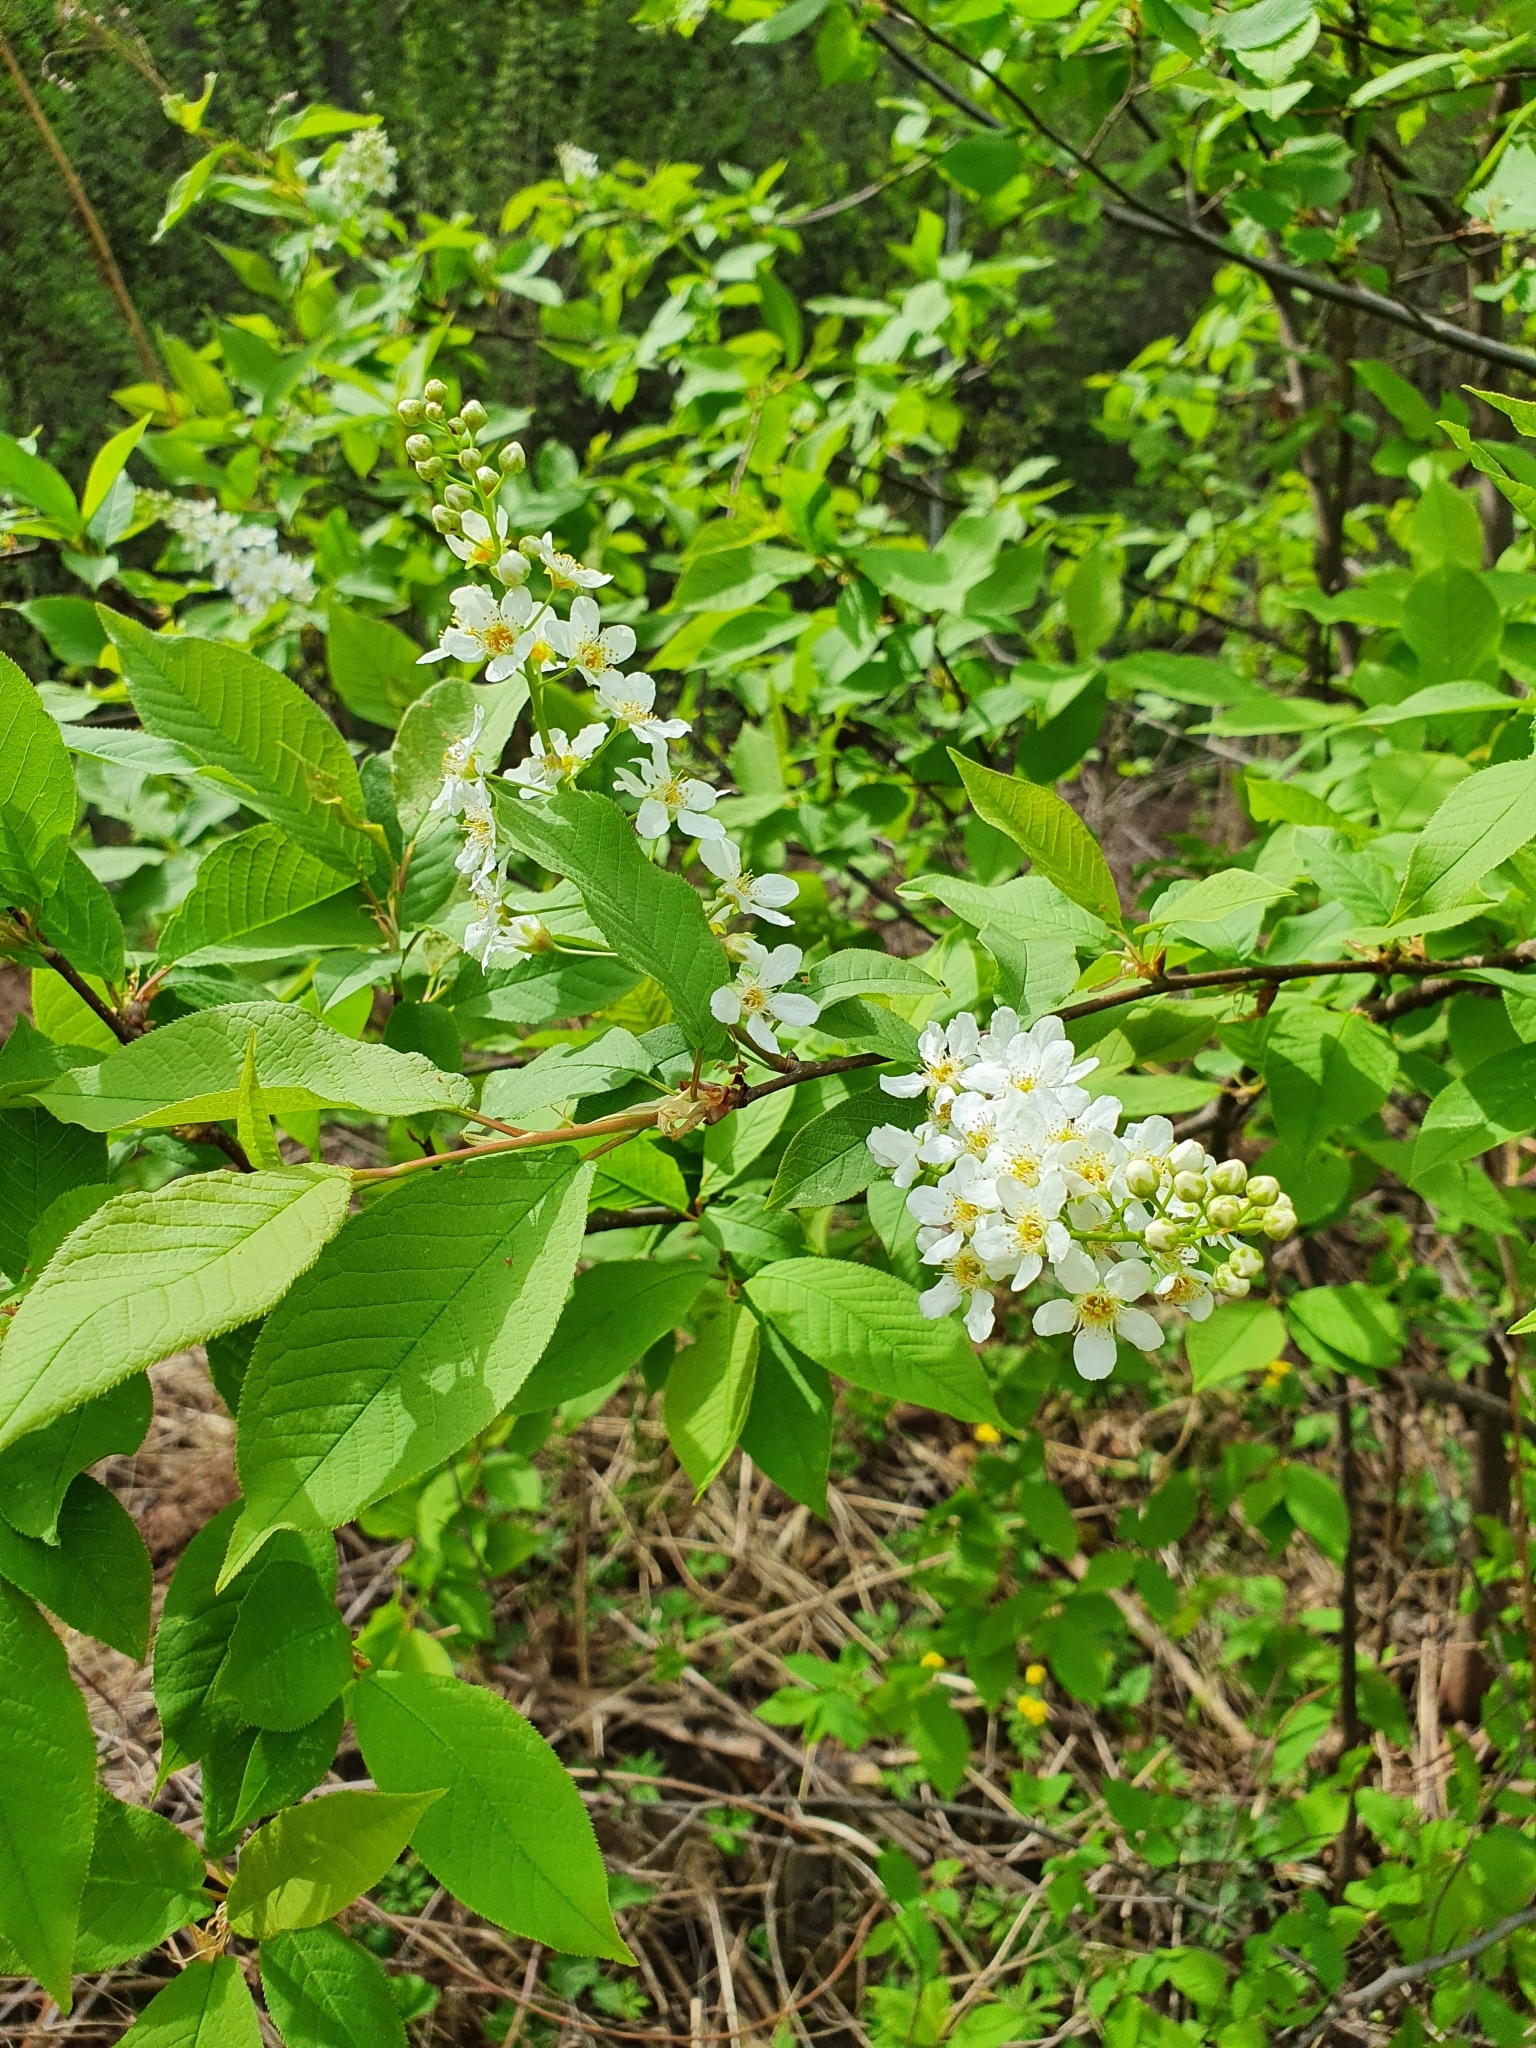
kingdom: Plantae
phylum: Tracheophyta
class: Magnoliopsida
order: Rosales
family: Rosaceae
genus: Prunus
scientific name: Prunus padus
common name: Bird cherry
